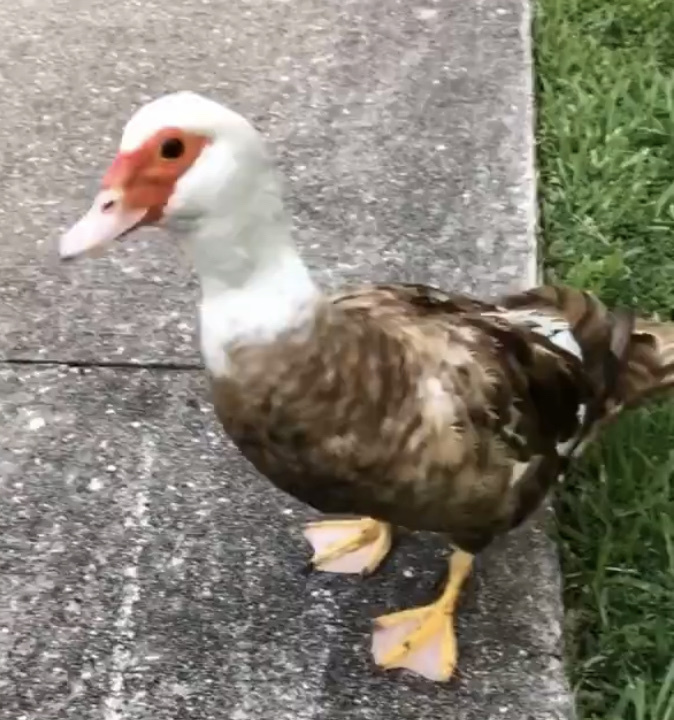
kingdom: Animalia
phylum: Chordata
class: Aves
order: Anseriformes
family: Anatidae
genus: Cairina
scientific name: Cairina moschata
